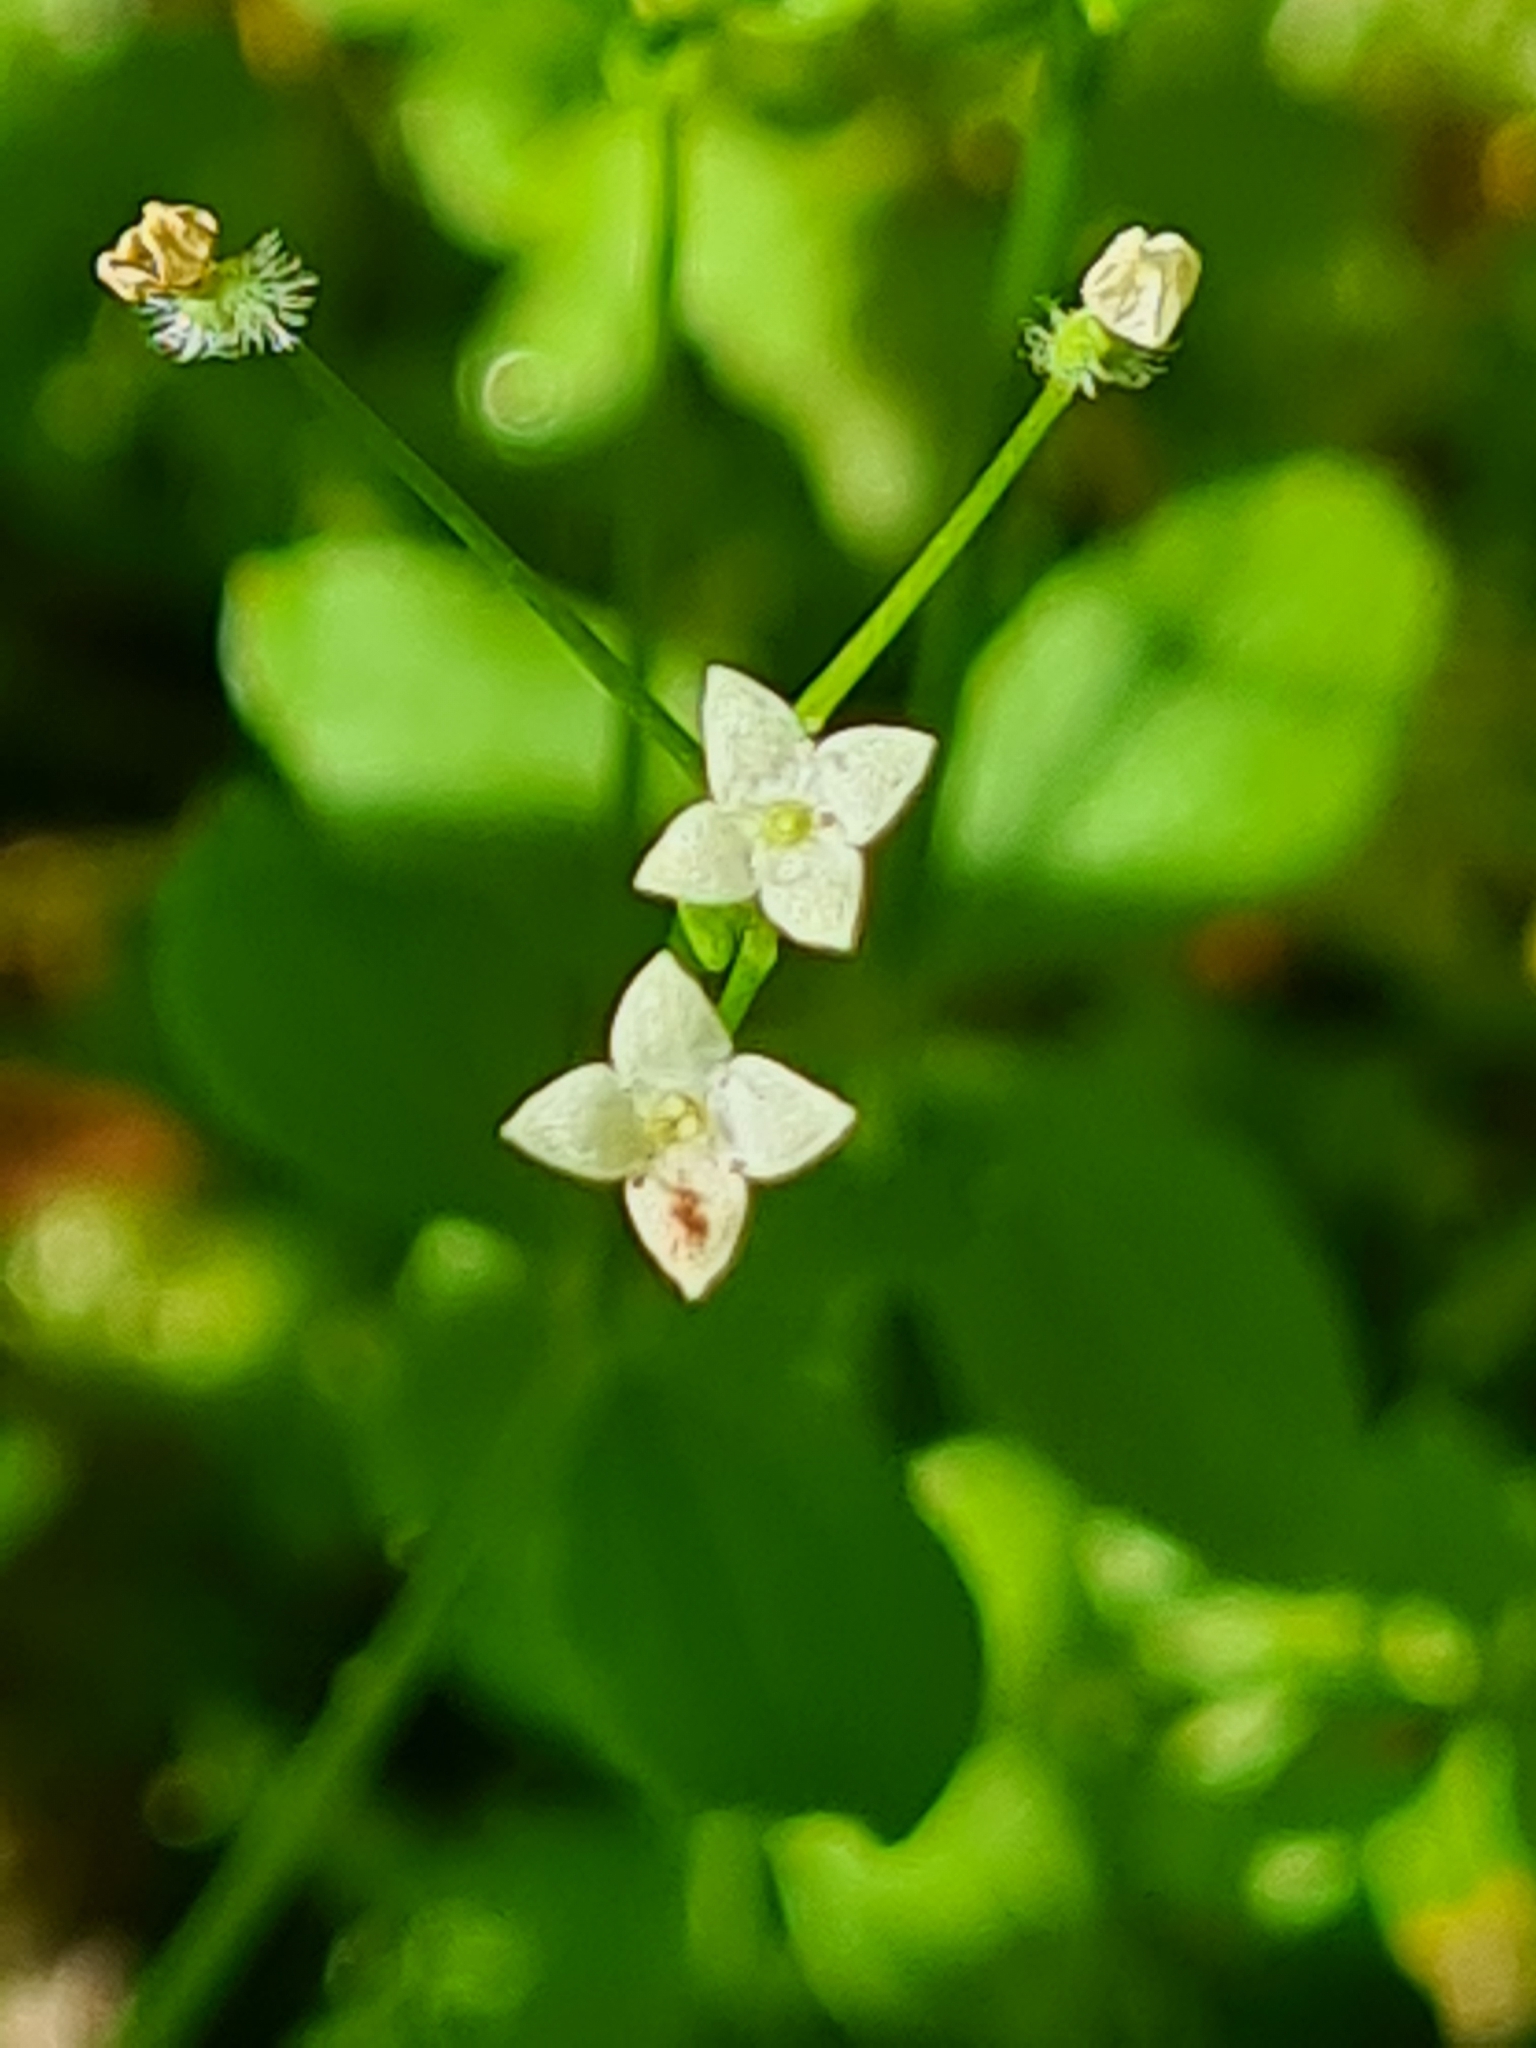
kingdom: Plantae
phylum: Tracheophyta
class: Magnoliopsida
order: Gentianales
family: Rubiaceae
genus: Galium
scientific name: Galium rotundifolium
